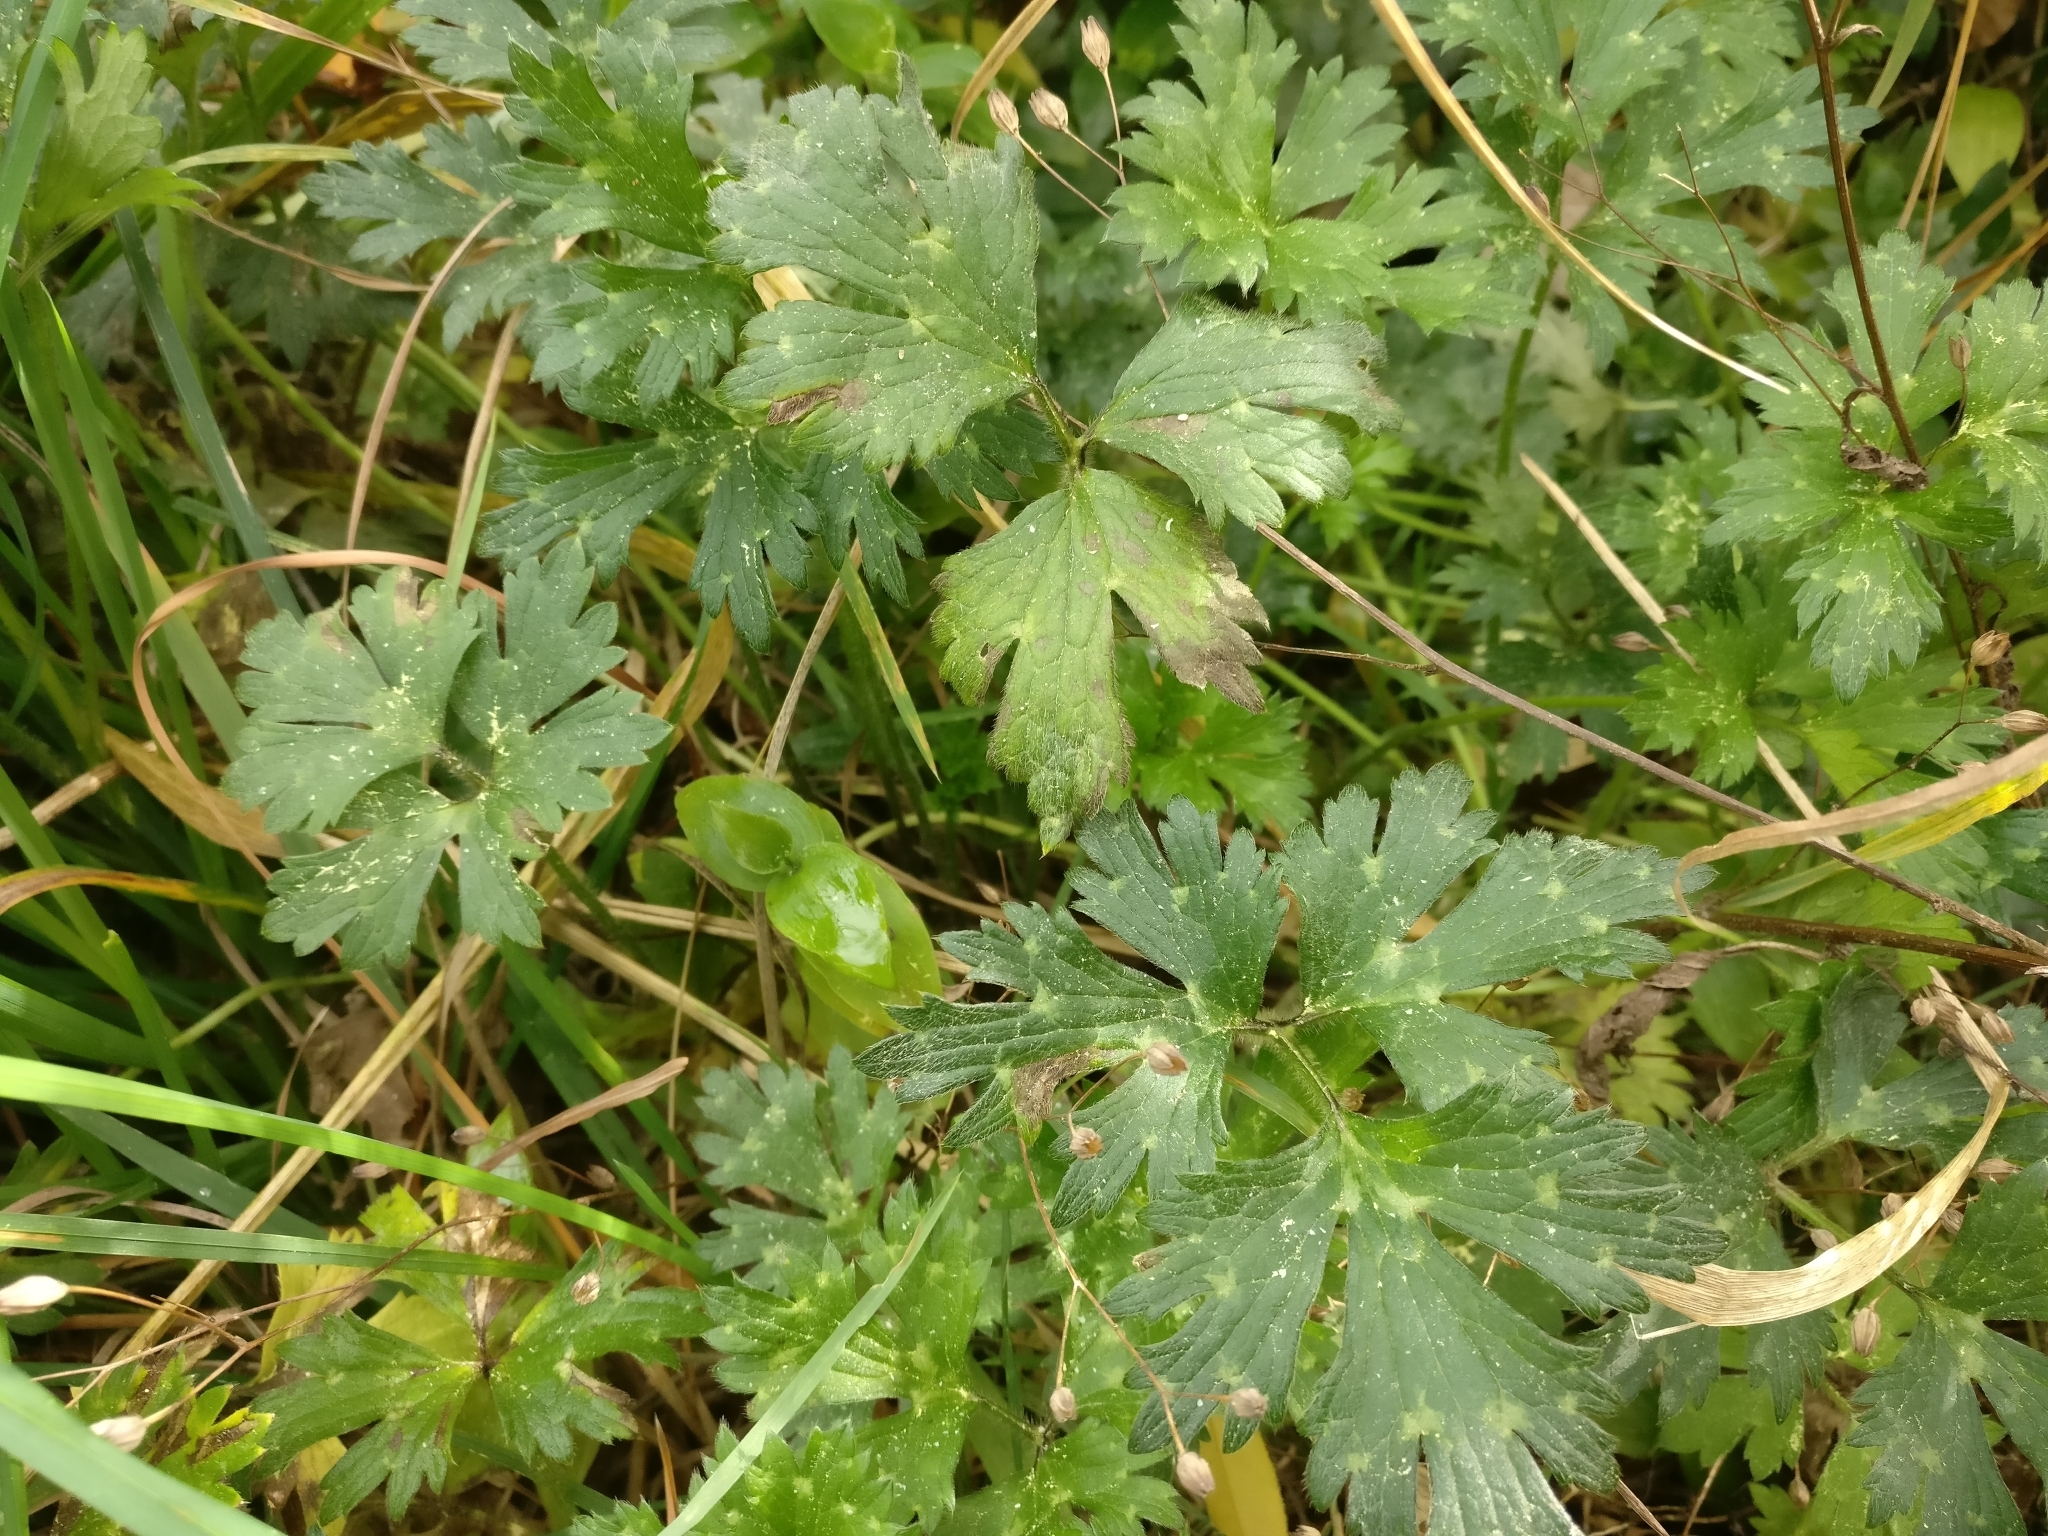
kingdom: Plantae
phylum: Tracheophyta
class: Magnoliopsida
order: Ranunculales
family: Ranunculaceae
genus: Ranunculus
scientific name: Ranunculus repens
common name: Creeping buttercup
